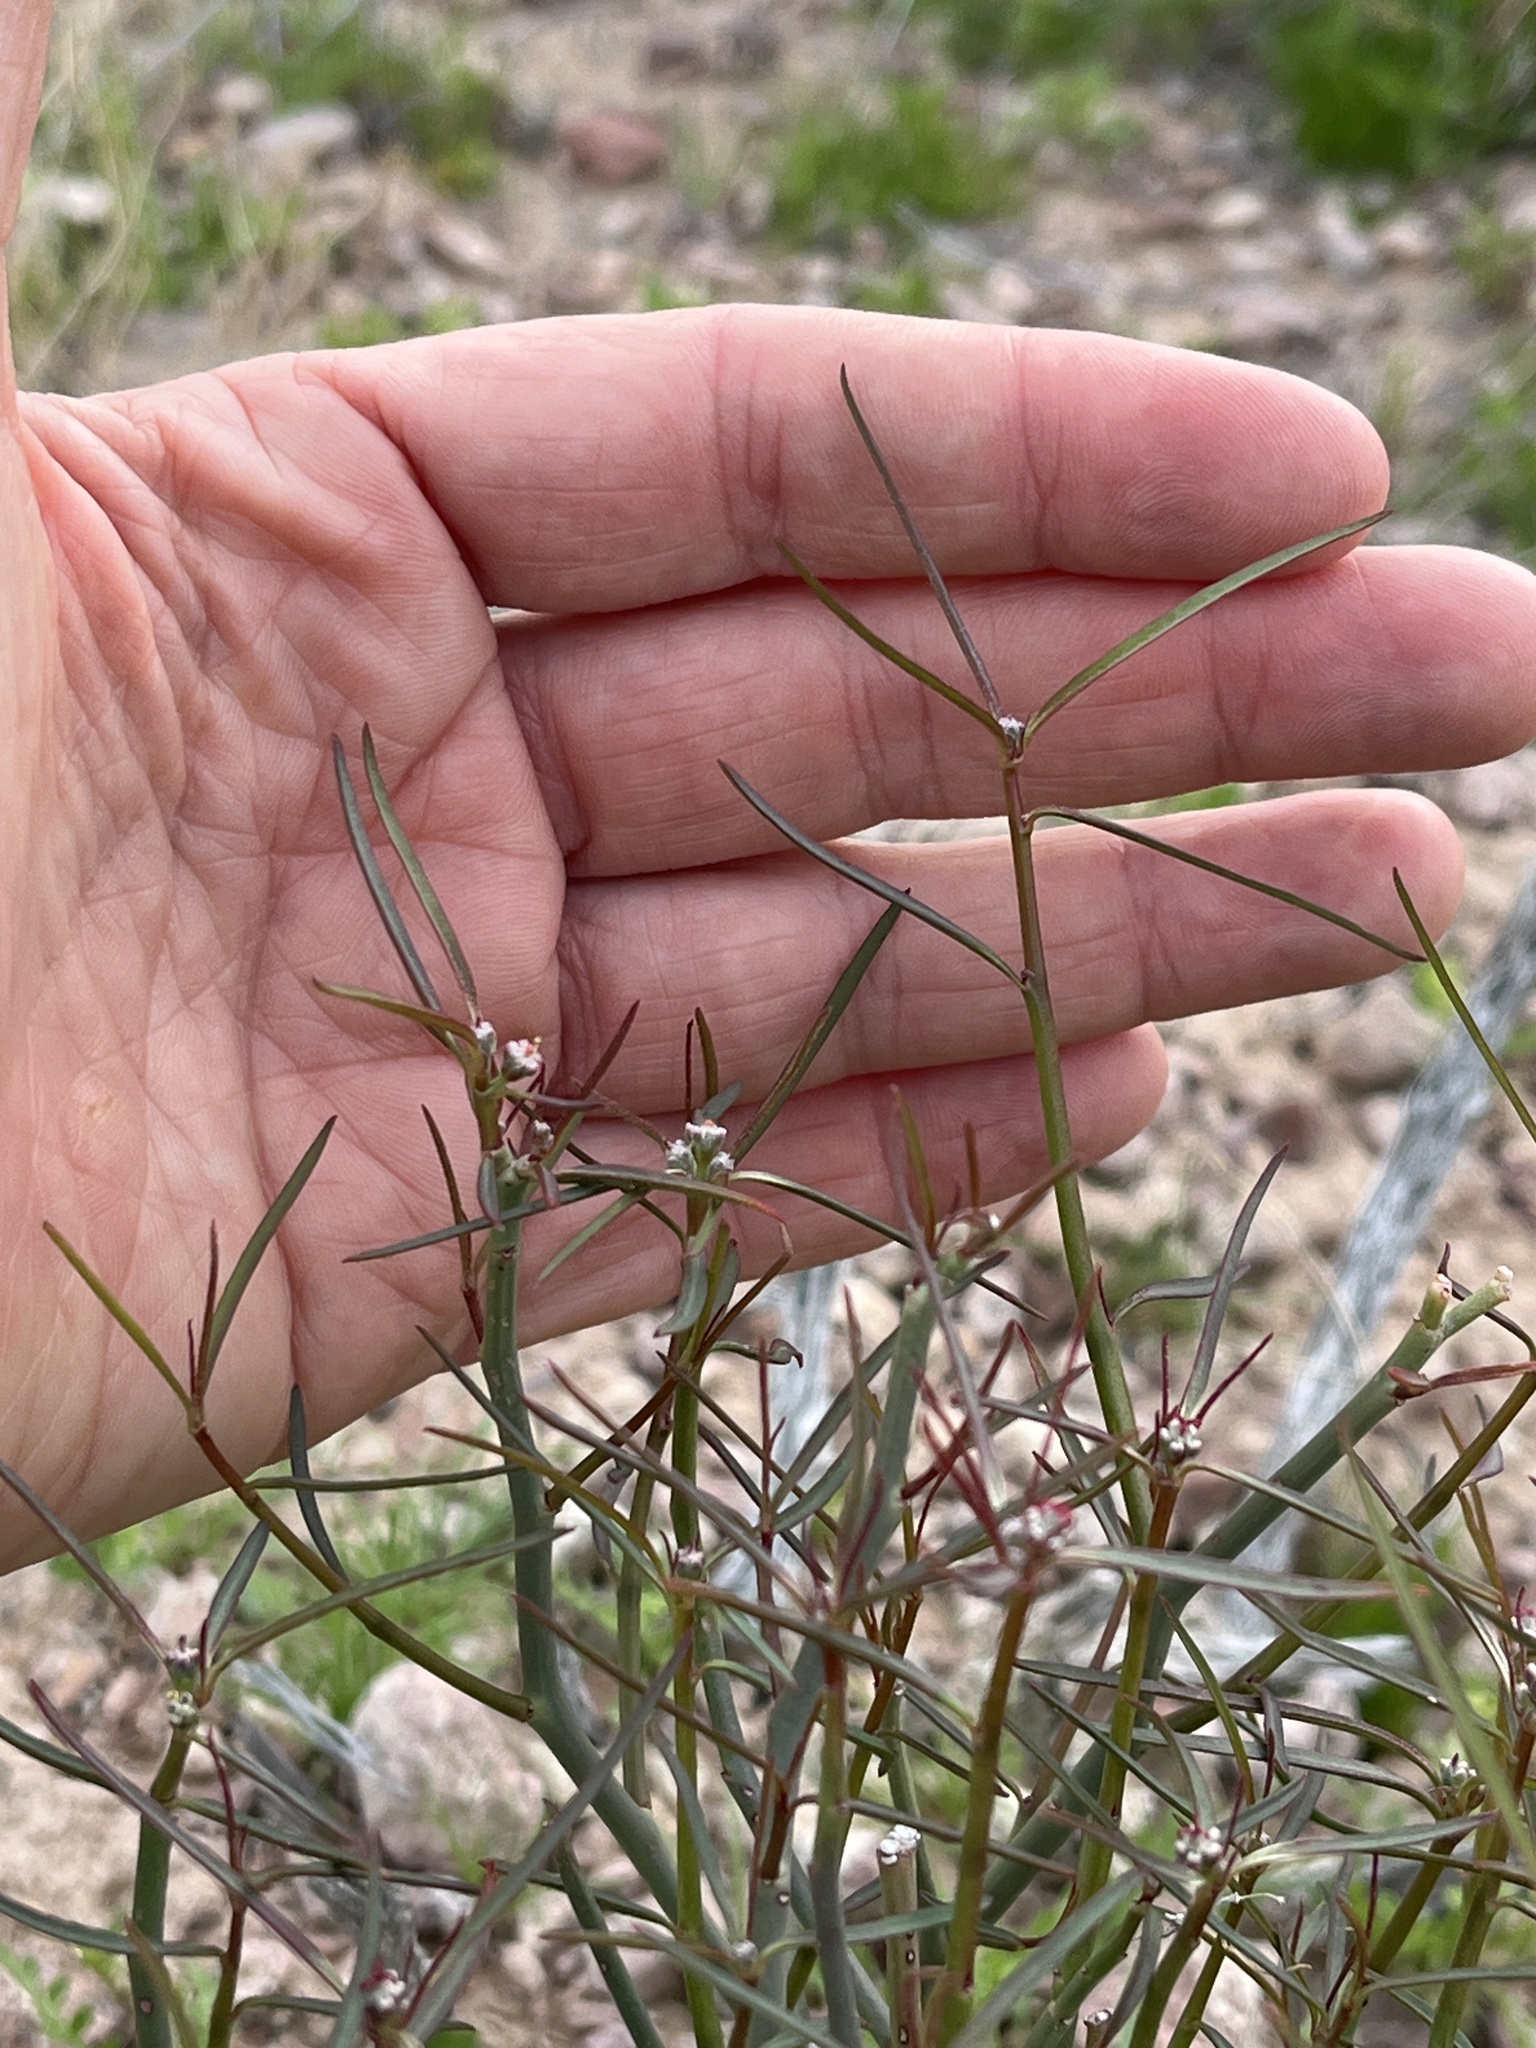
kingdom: Plantae
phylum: Tracheophyta
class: Magnoliopsida
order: Malpighiales
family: Euphorbiaceae
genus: Euphorbia
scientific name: Euphorbia eriantha
